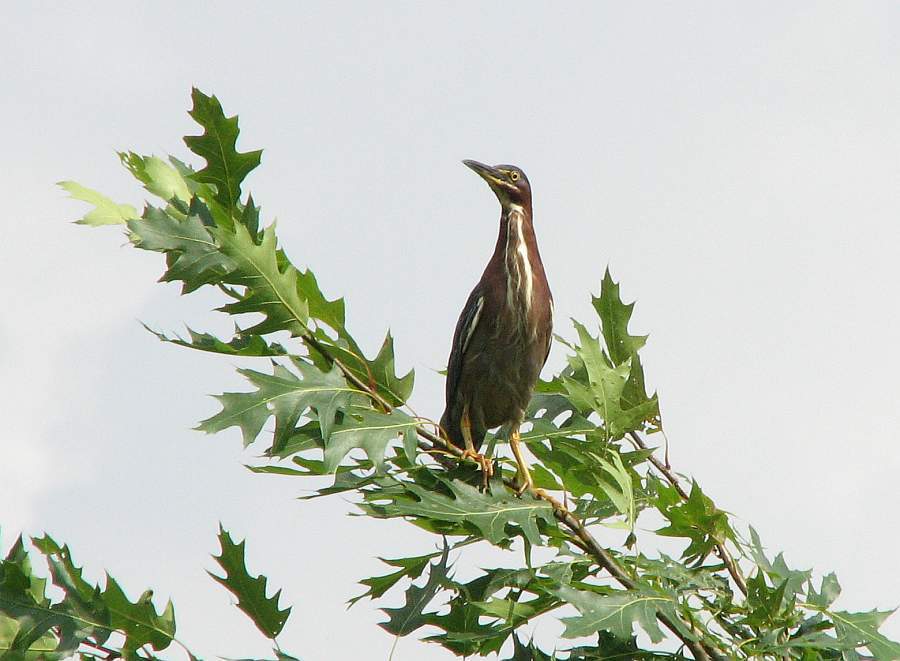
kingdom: Animalia
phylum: Chordata
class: Aves
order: Pelecaniformes
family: Ardeidae
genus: Butorides
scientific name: Butorides virescens
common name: Green heron
